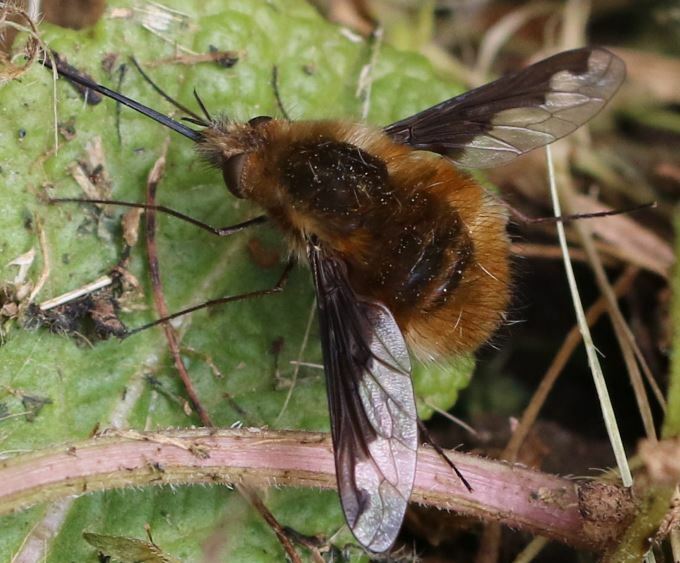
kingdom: Animalia
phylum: Arthropoda
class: Insecta
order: Diptera
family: Bombyliidae
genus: Bombylius
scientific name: Bombylius major
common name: Bee fly
